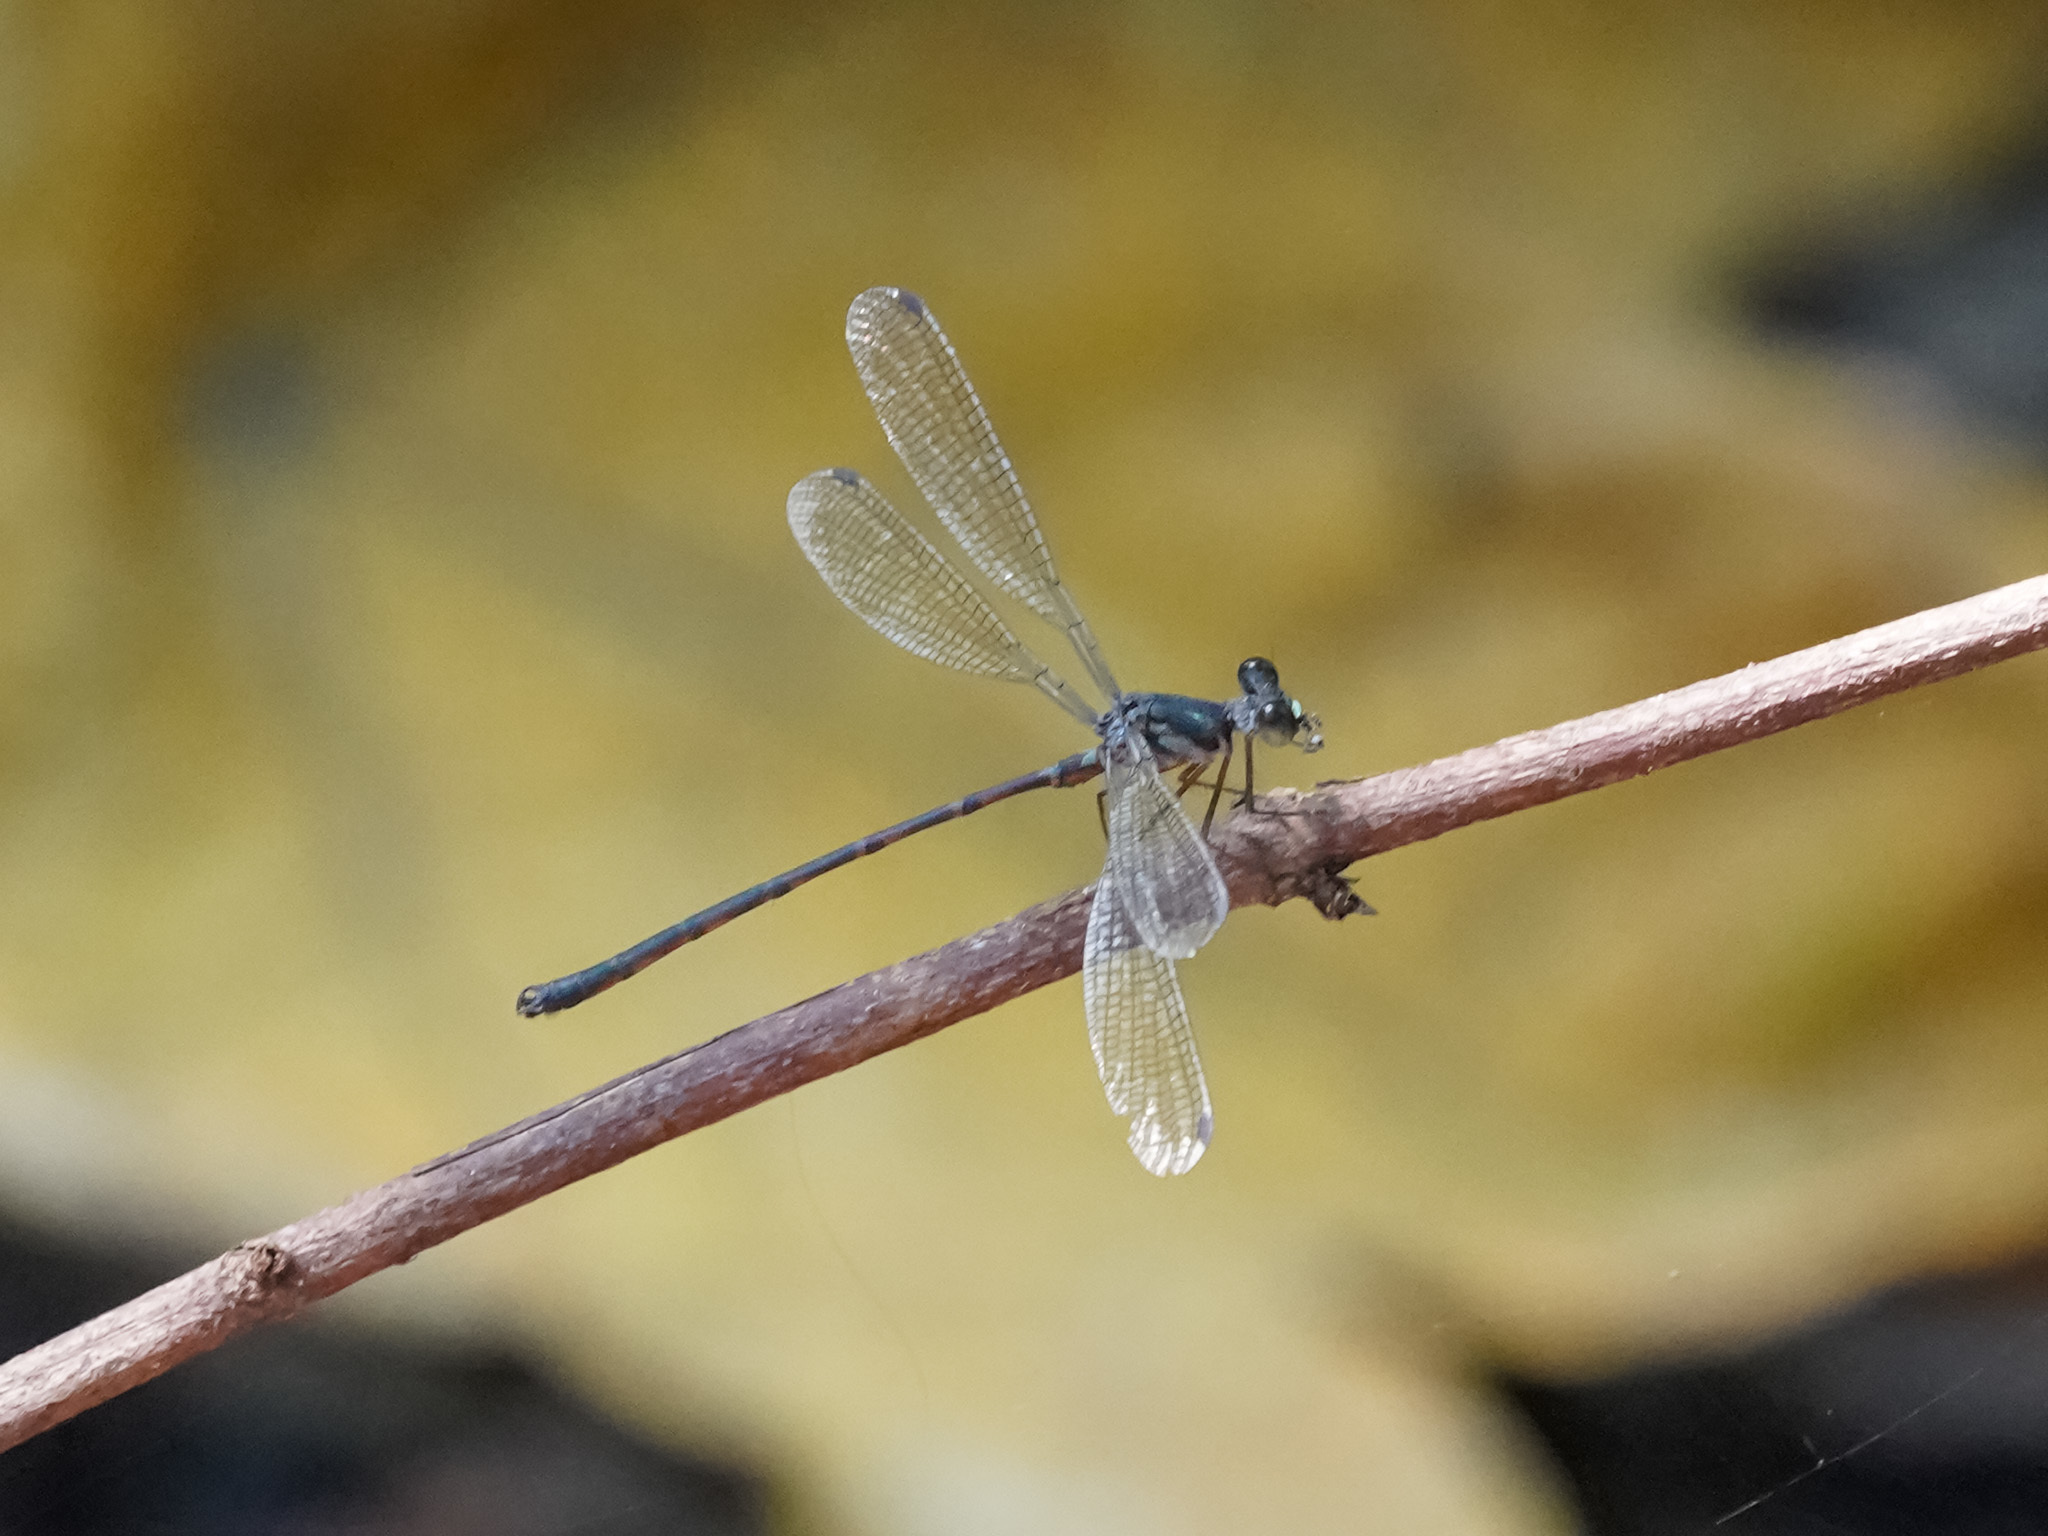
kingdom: Animalia
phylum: Arthropoda
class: Insecta
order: Odonata
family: Argiolestidae
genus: Podolestes
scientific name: Podolestes orientalis
